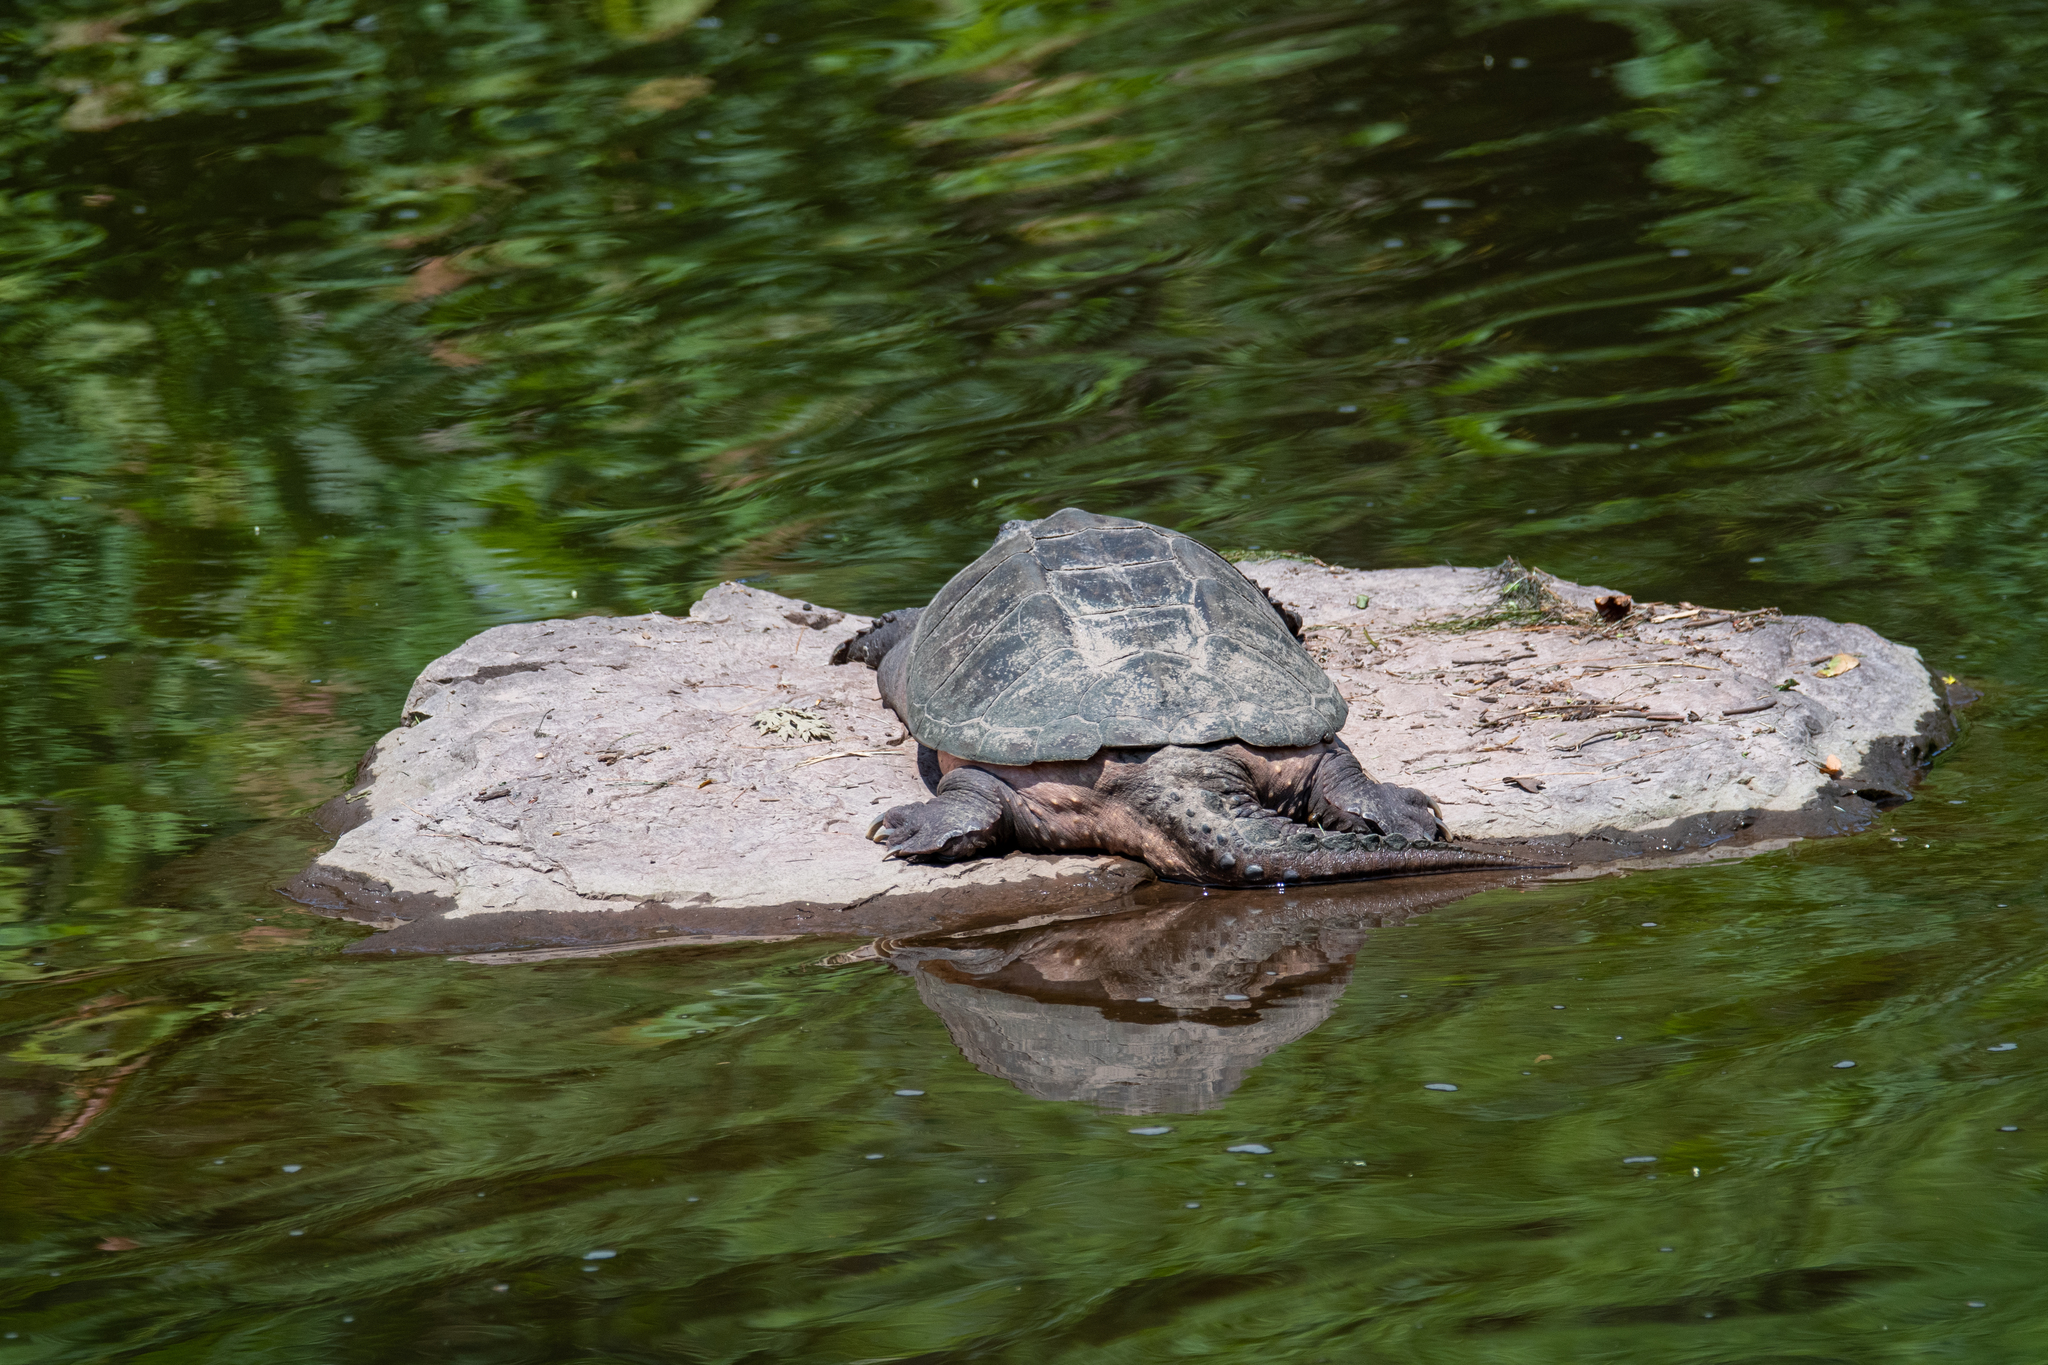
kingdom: Animalia
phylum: Chordata
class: Testudines
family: Chelydridae
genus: Chelydra
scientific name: Chelydra serpentina
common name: Common snapping turtle
